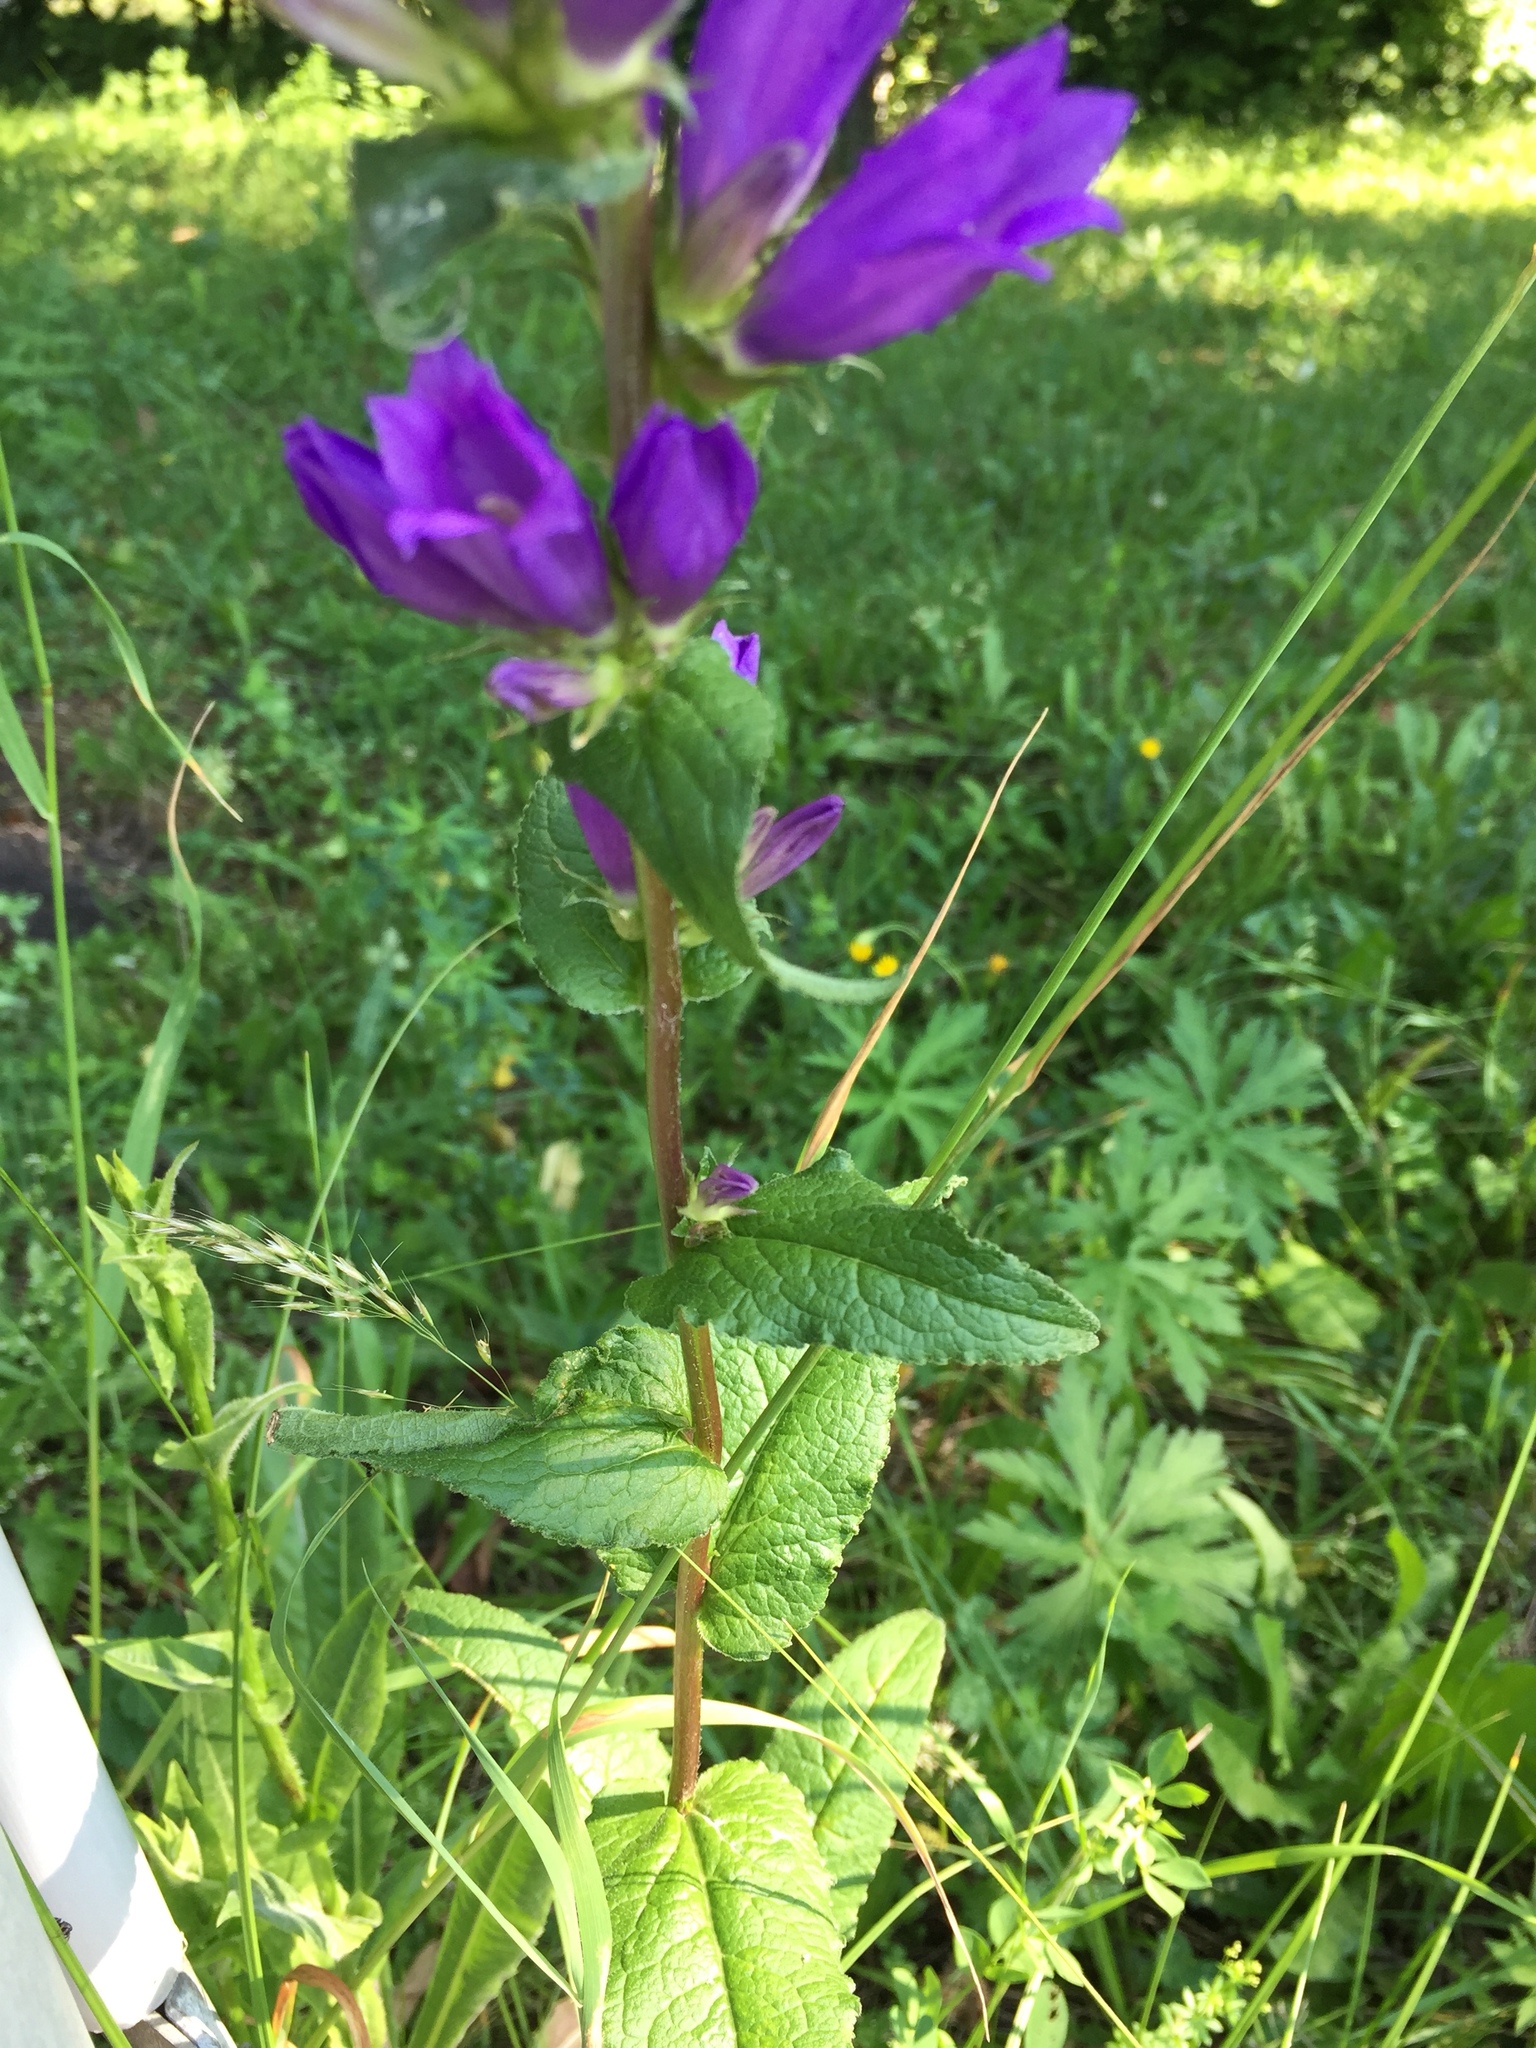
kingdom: Plantae
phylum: Tracheophyta
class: Magnoliopsida
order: Asterales
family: Campanulaceae
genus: Campanula
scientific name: Campanula glomerata
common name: Clustered bellflower
